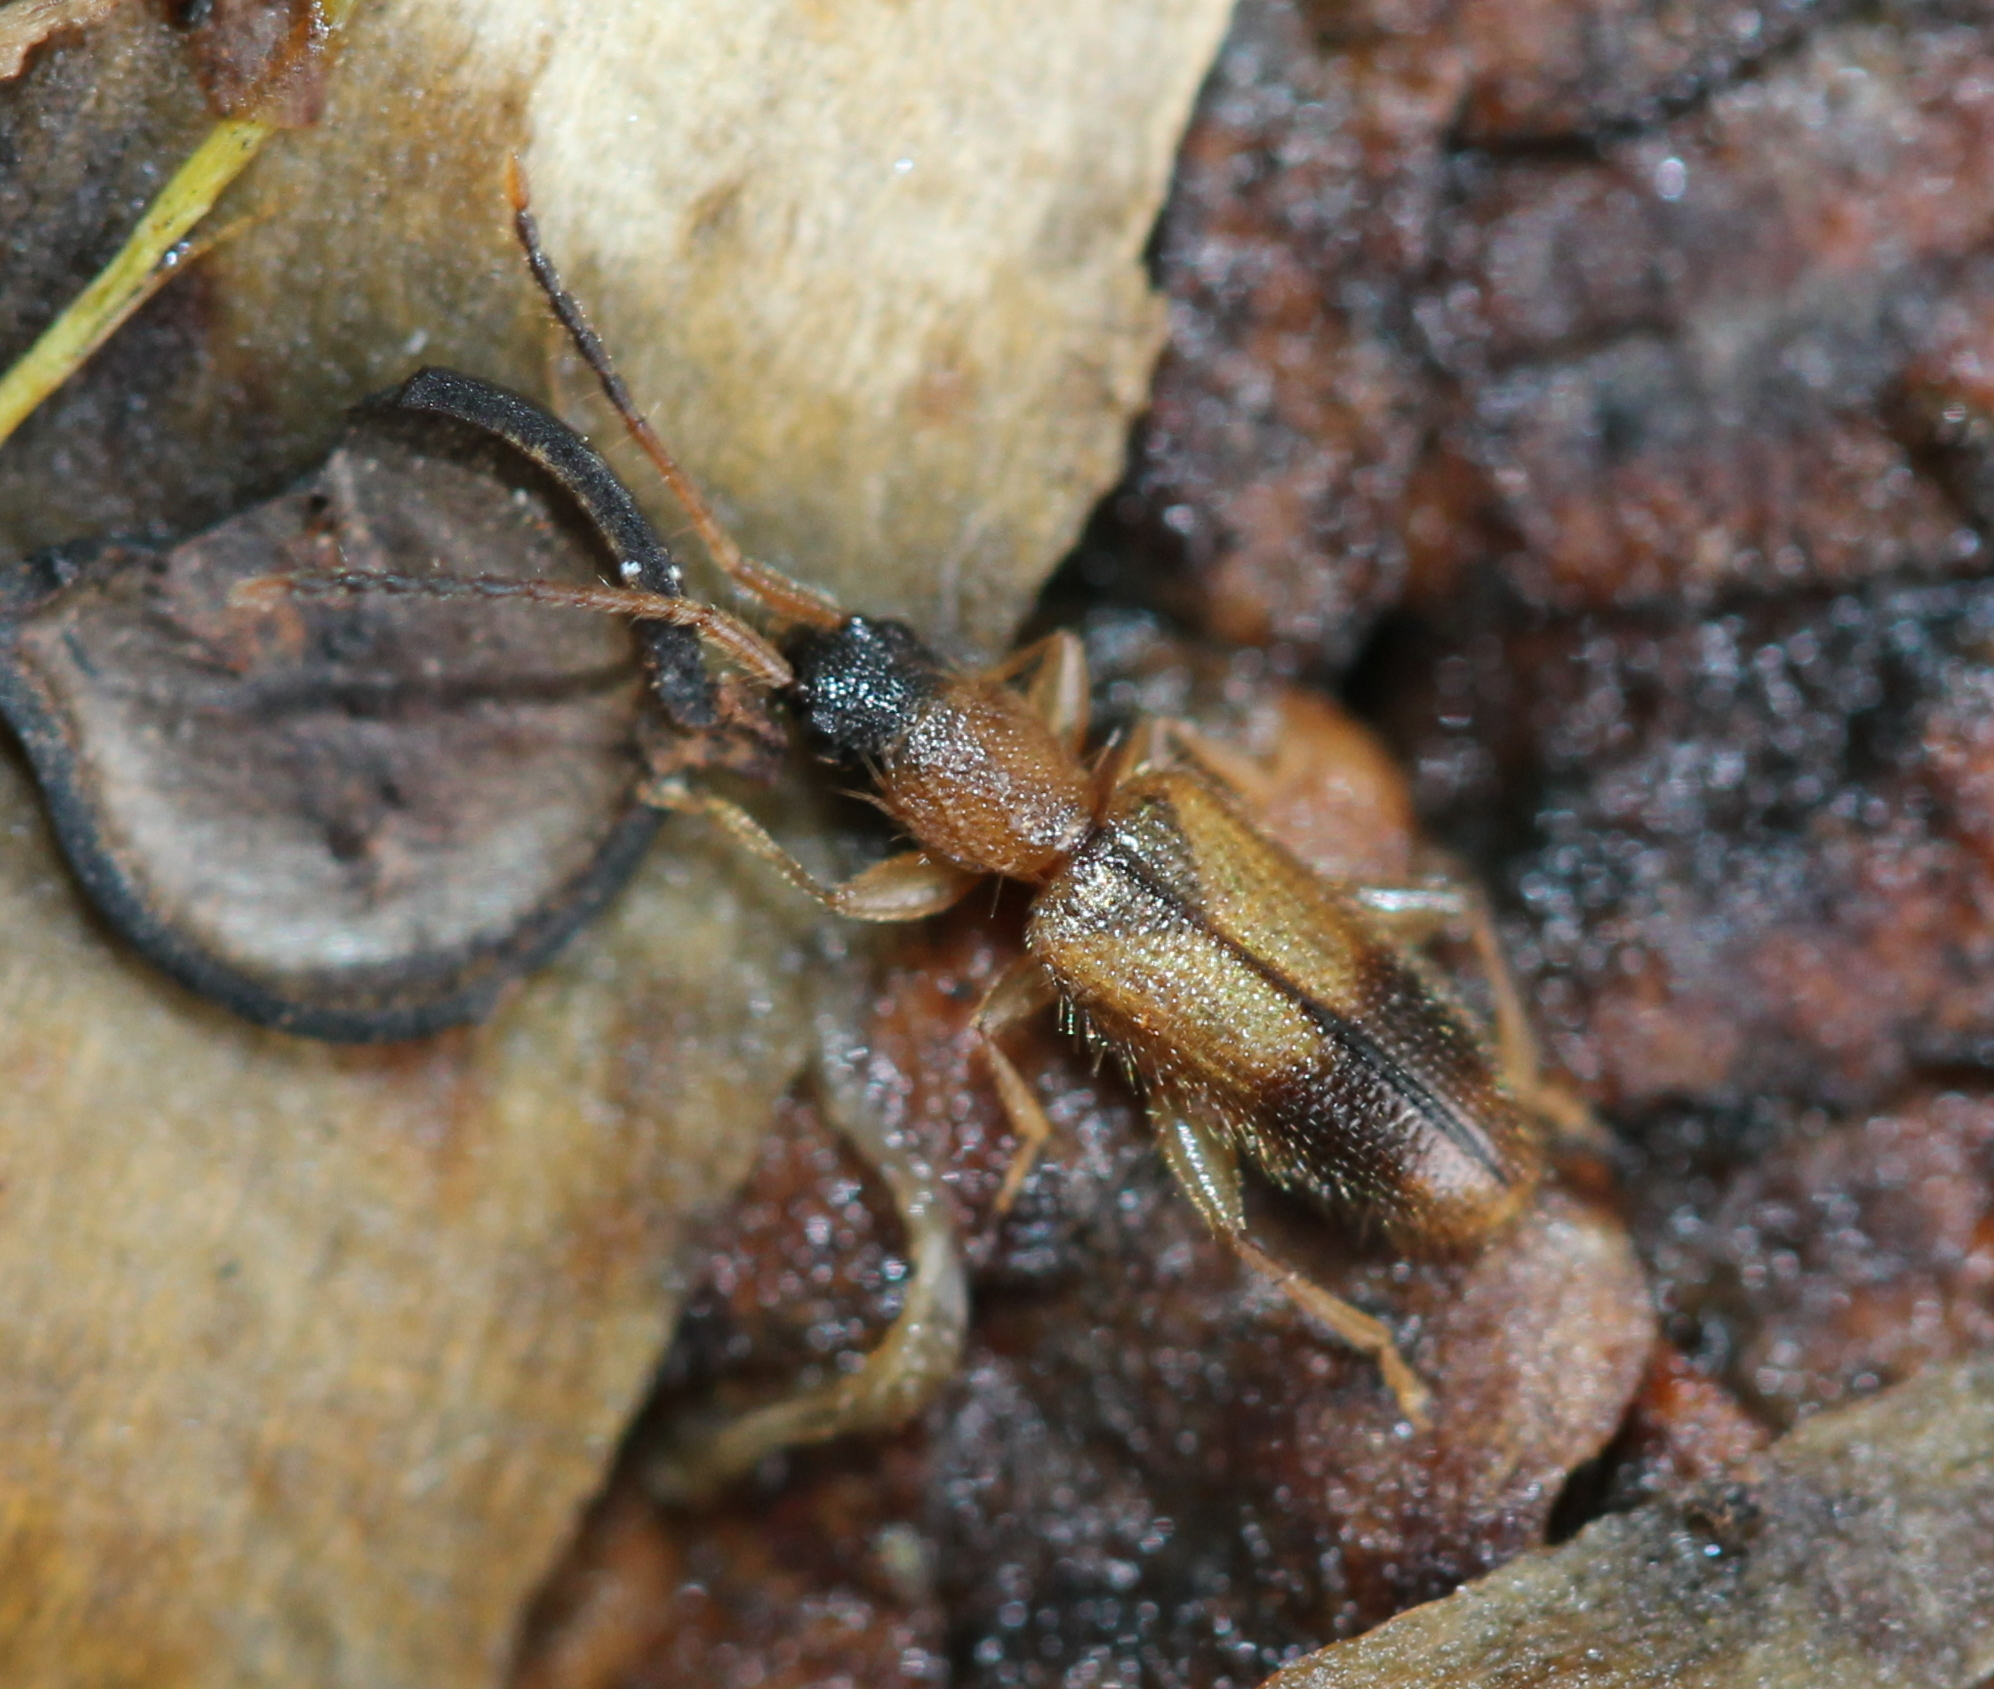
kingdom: Animalia
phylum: Arthropoda
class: Insecta
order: Coleoptera
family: Silvanidae
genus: Telephanus
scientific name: Telephanus velox
